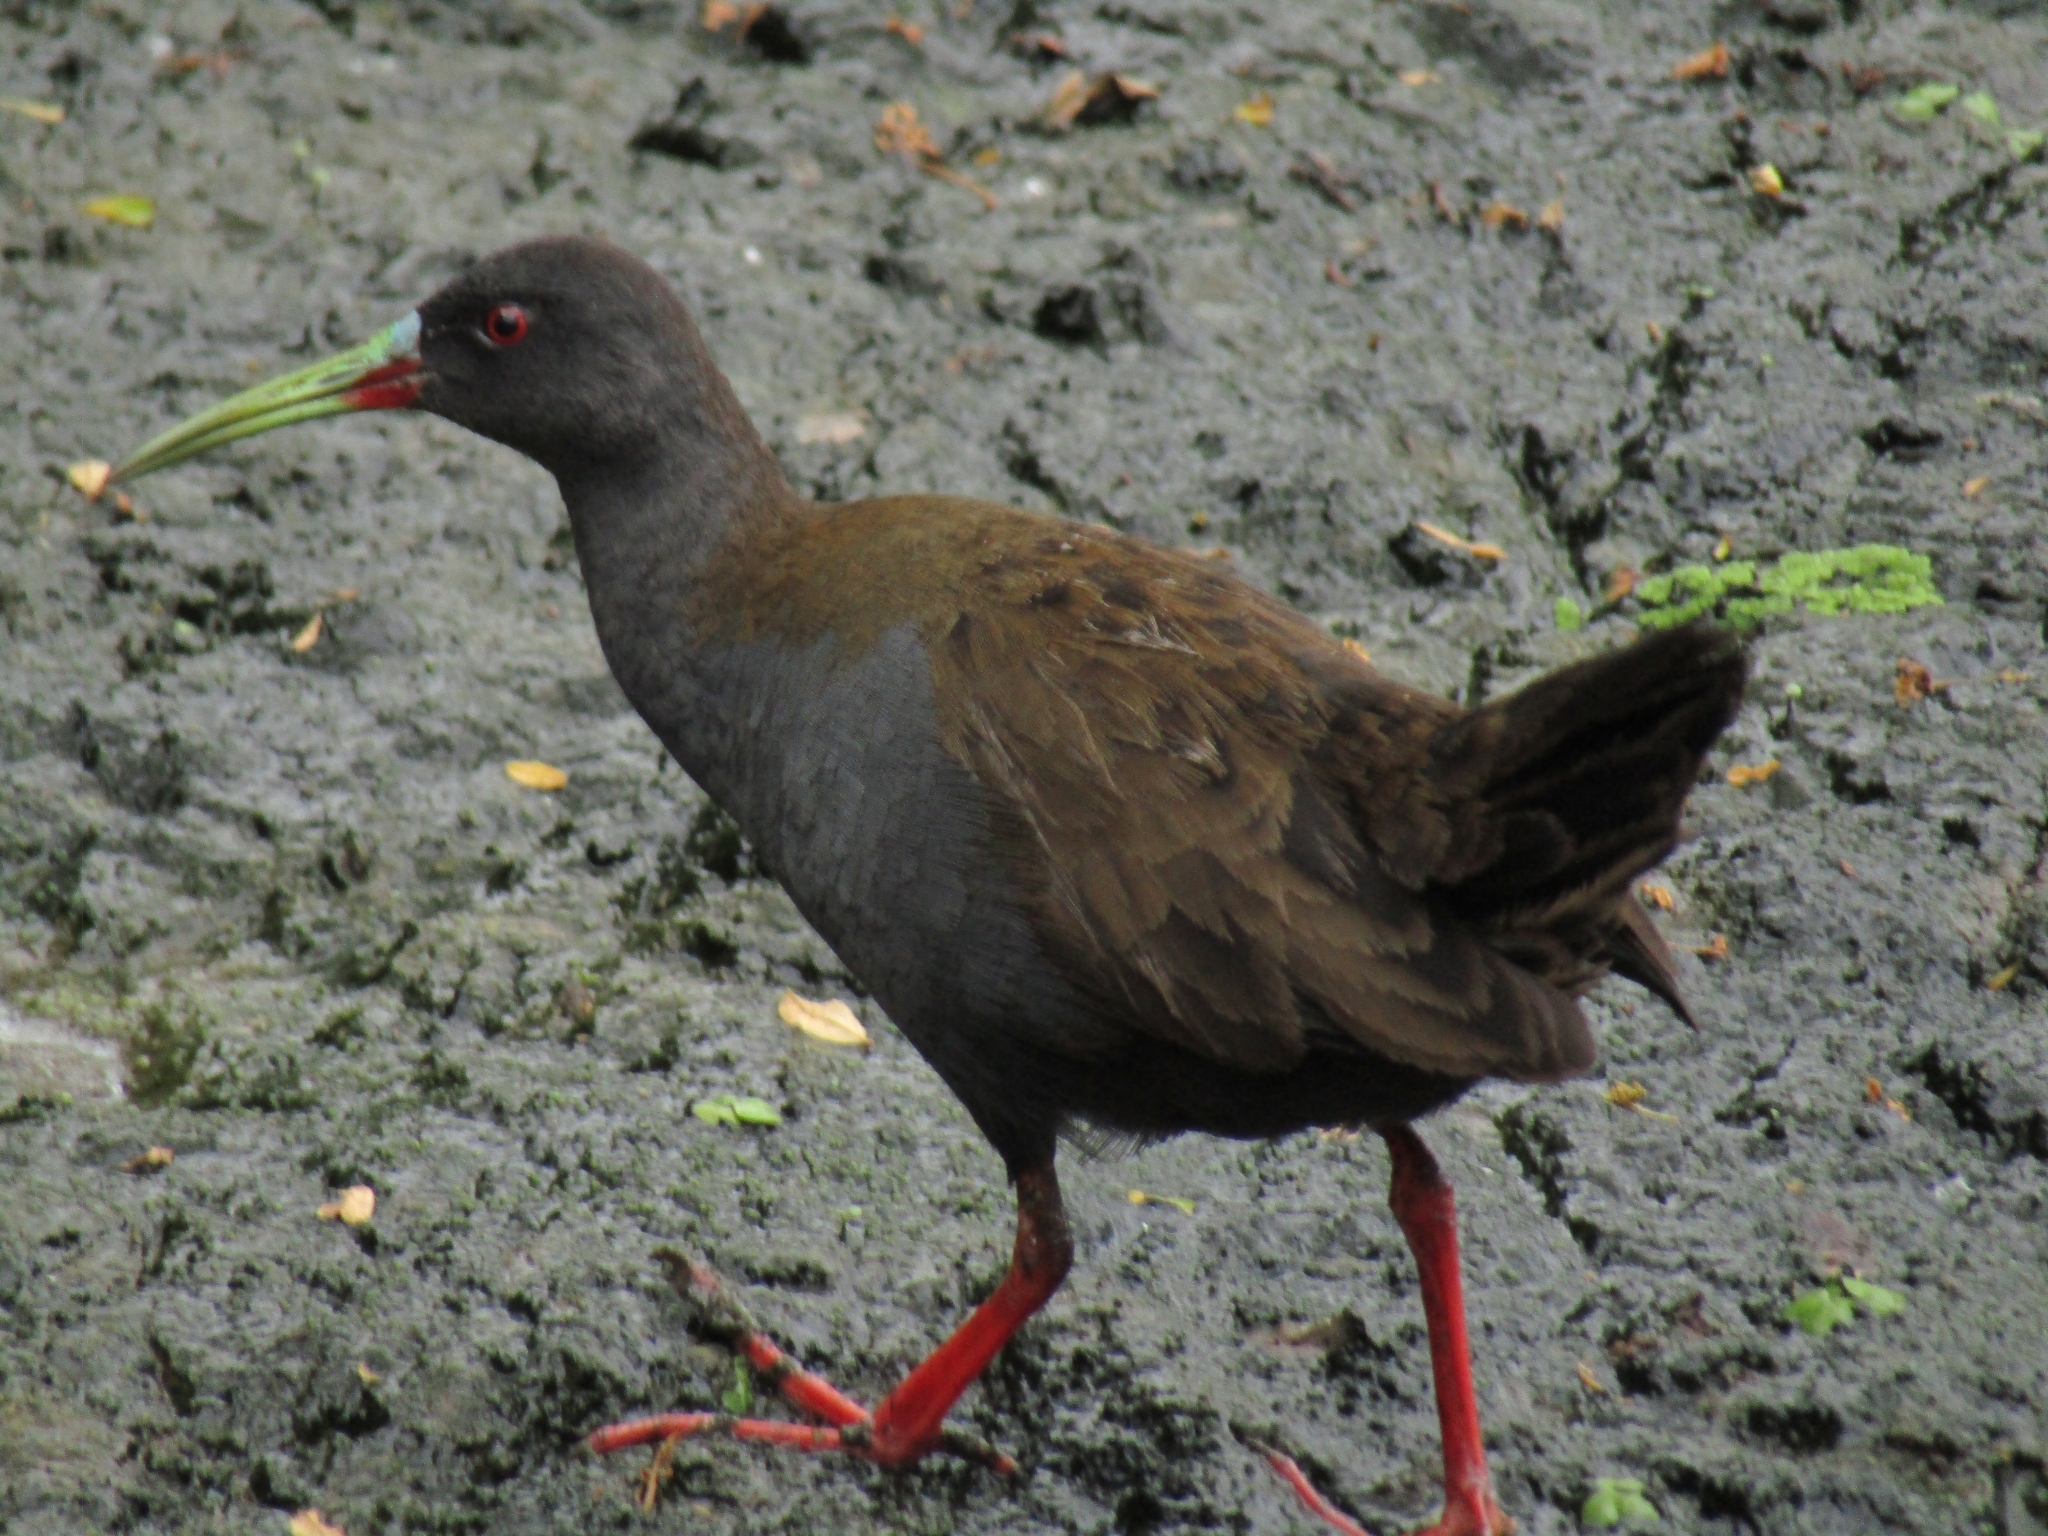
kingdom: Animalia
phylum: Chordata
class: Aves
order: Gruiformes
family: Rallidae
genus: Pardirallus
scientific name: Pardirallus sanguinolentus
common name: Plumbeous rail
